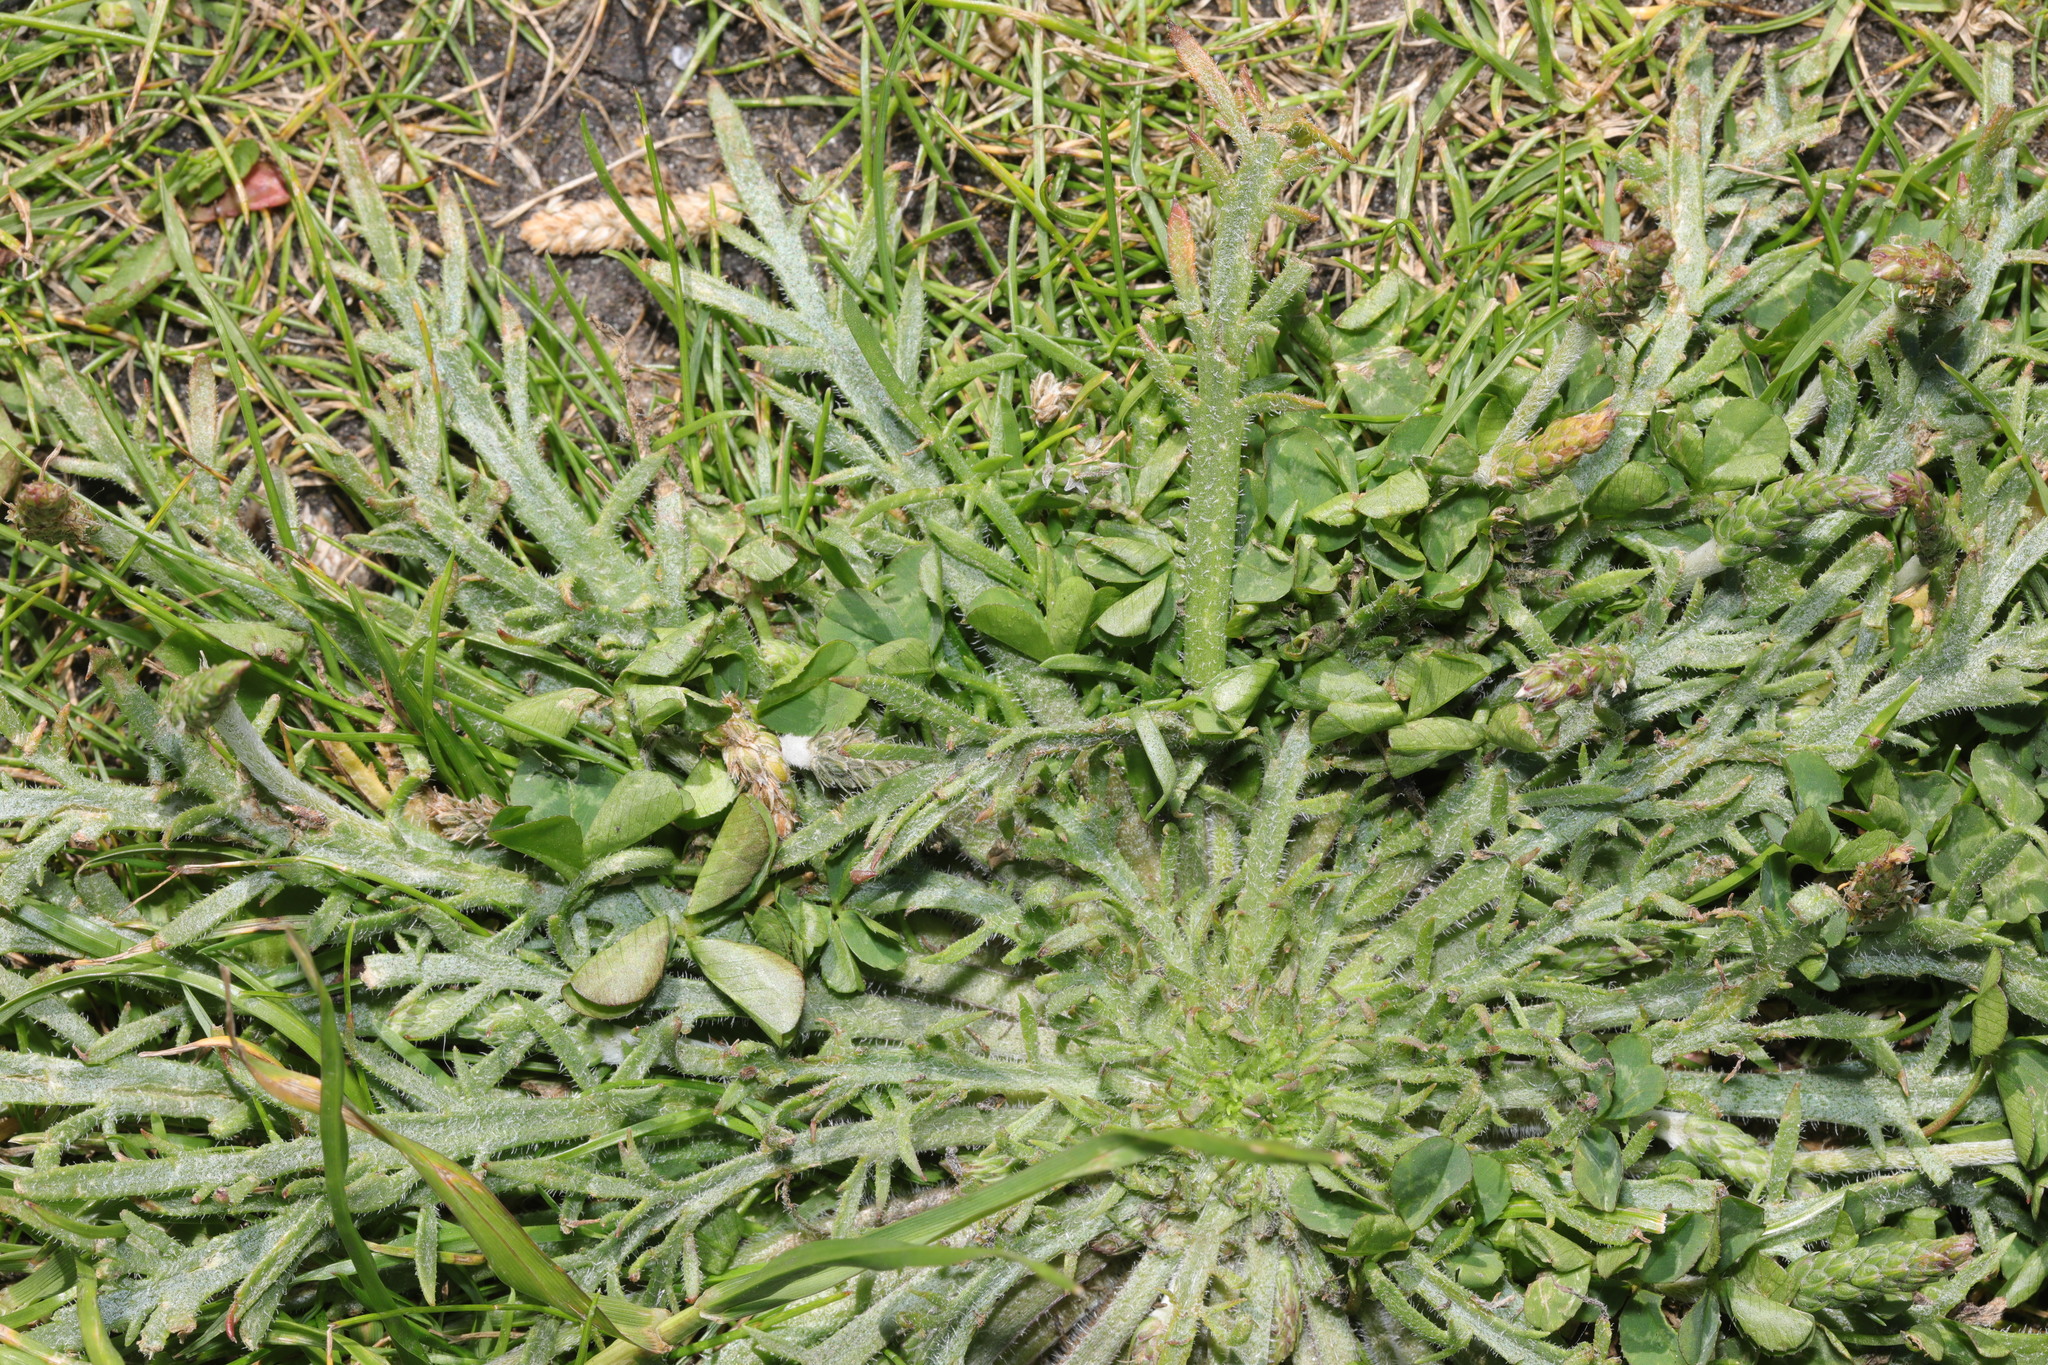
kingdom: Plantae
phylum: Tracheophyta
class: Magnoliopsida
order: Lamiales
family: Plantaginaceae
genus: Plantago
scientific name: Plantago coronopus
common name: Buck's-horn plantain
